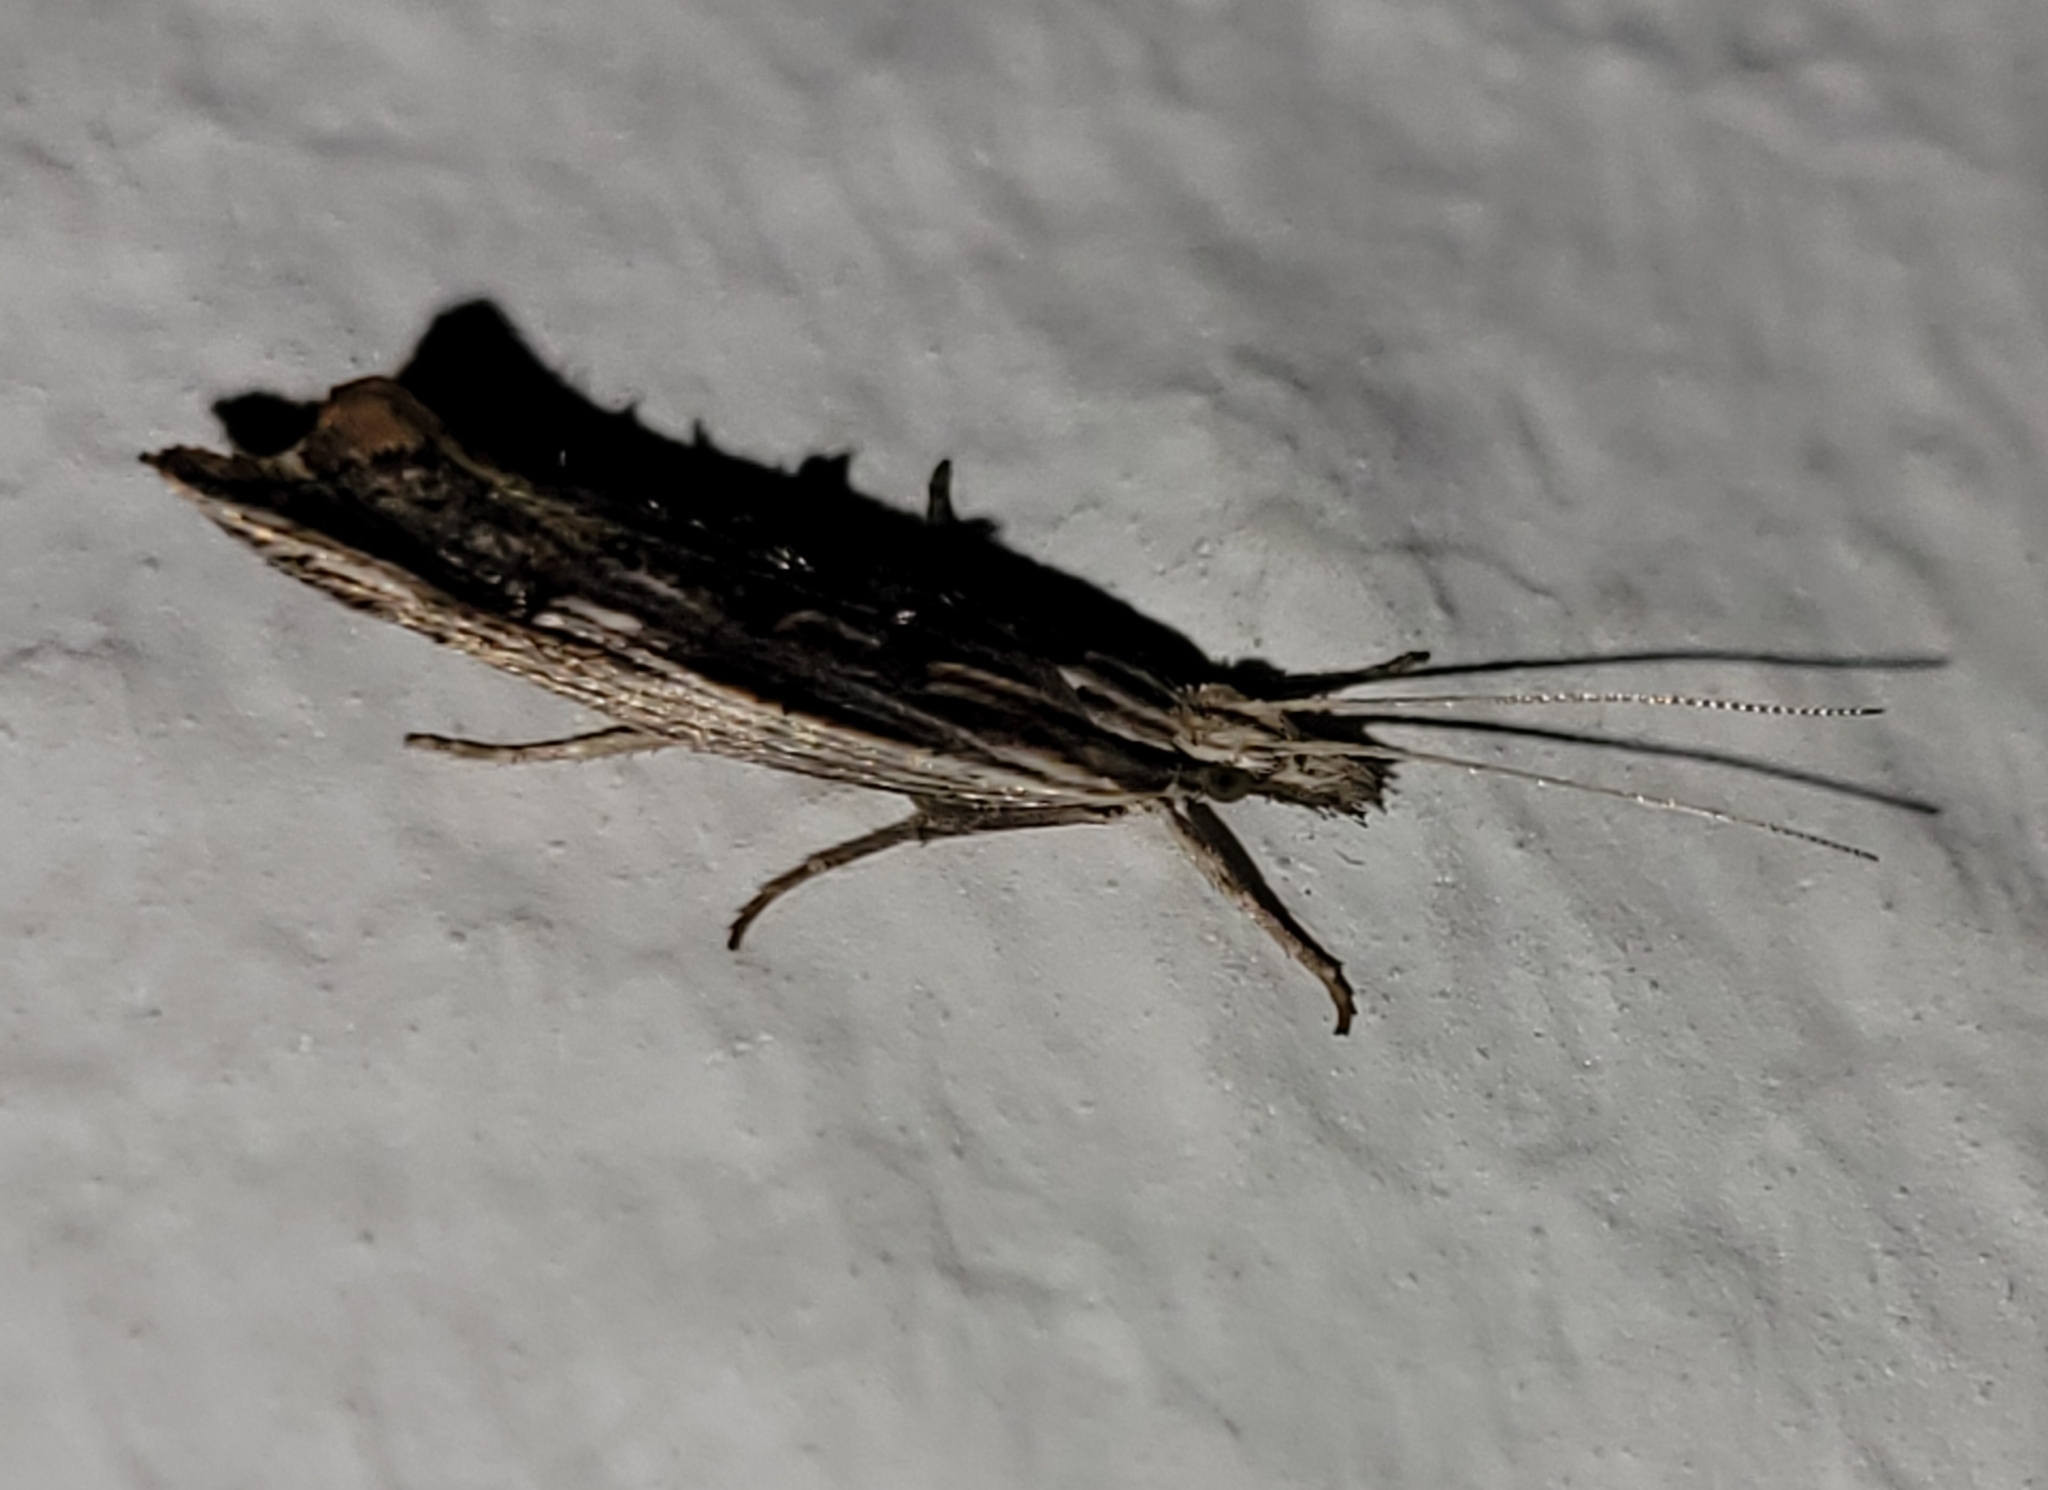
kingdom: Animalia
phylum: Arthropoda
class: Insecta
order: Lepidoptera
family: Ypsolophidae
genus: Ypsolopha
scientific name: Ypsolopha scabrella
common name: Wainscot smudge
